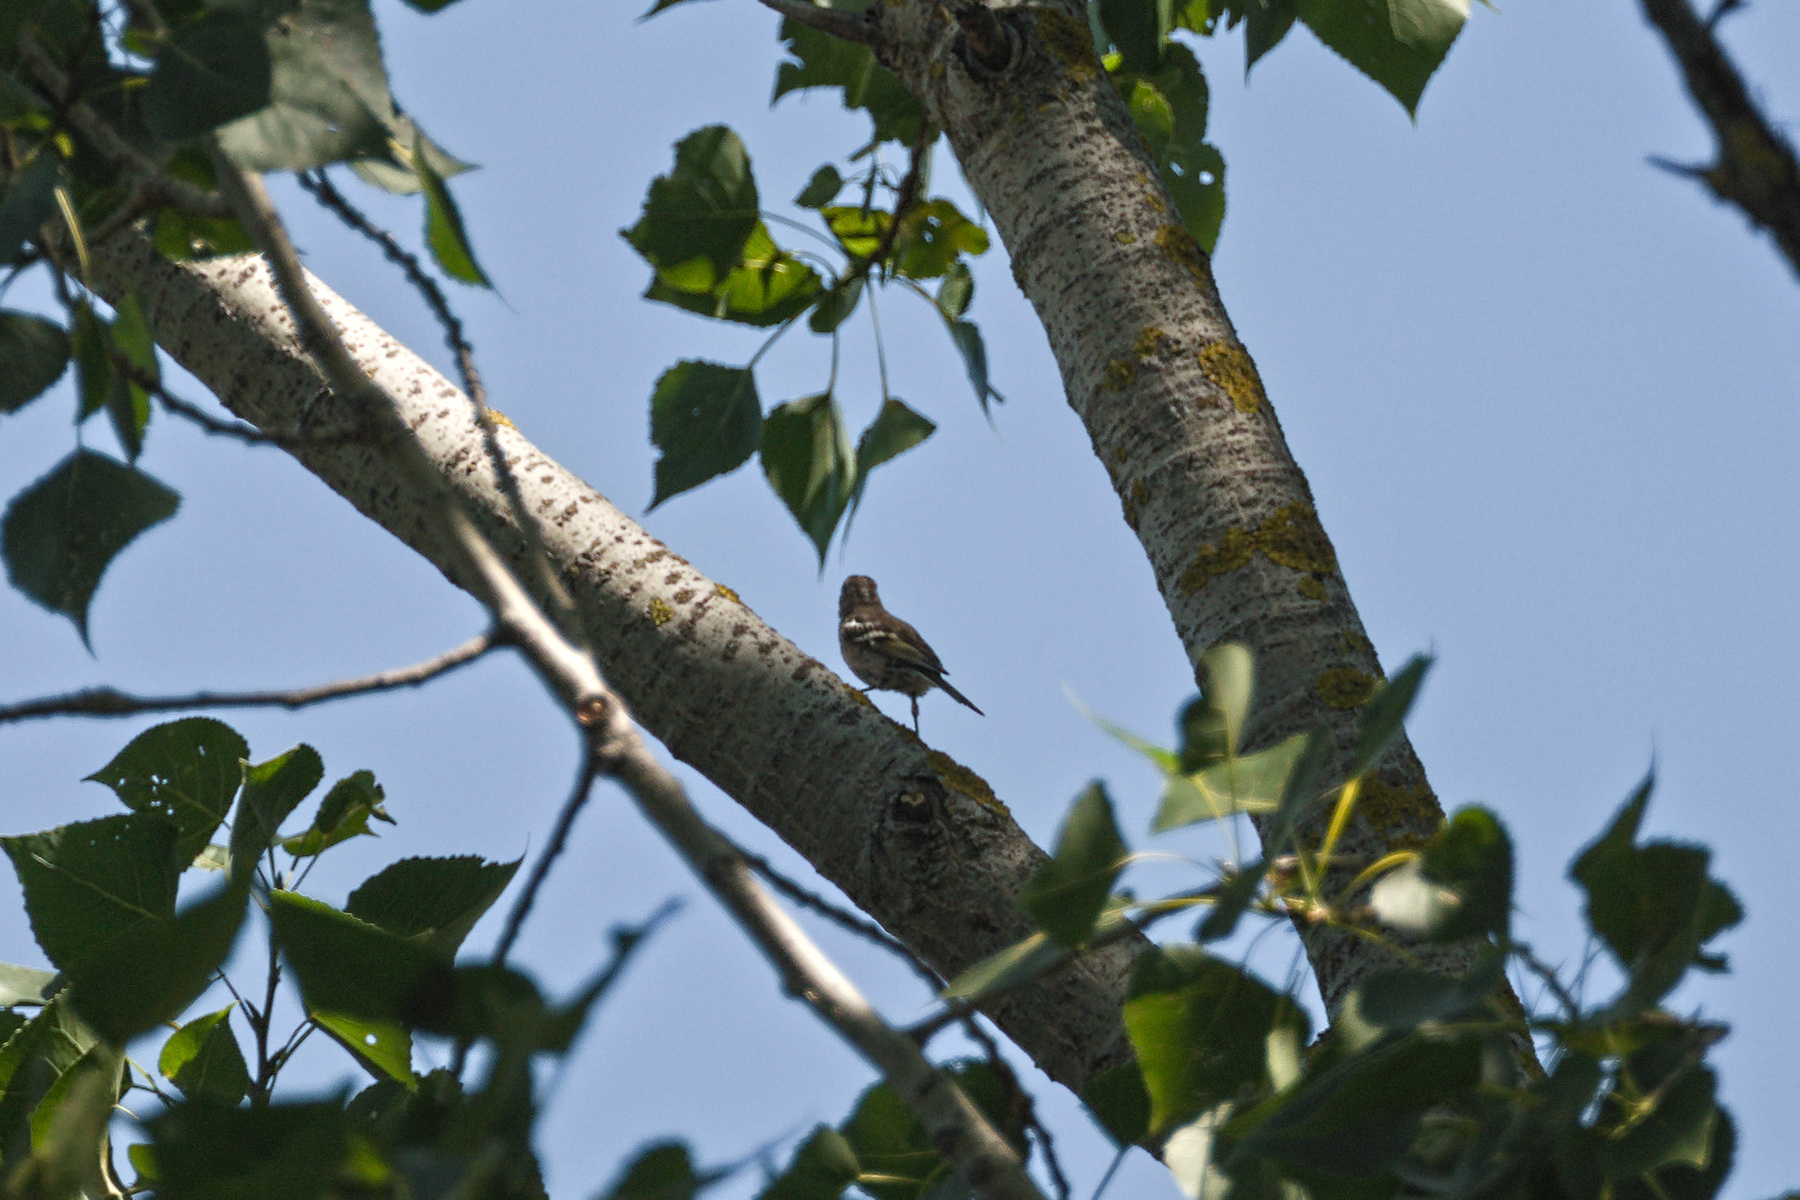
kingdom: Animalia
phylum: Chordata
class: Aves
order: Passeriformes
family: Fringillidae
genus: Fringilla
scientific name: Fringilla coelebs
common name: Common chaffinch
